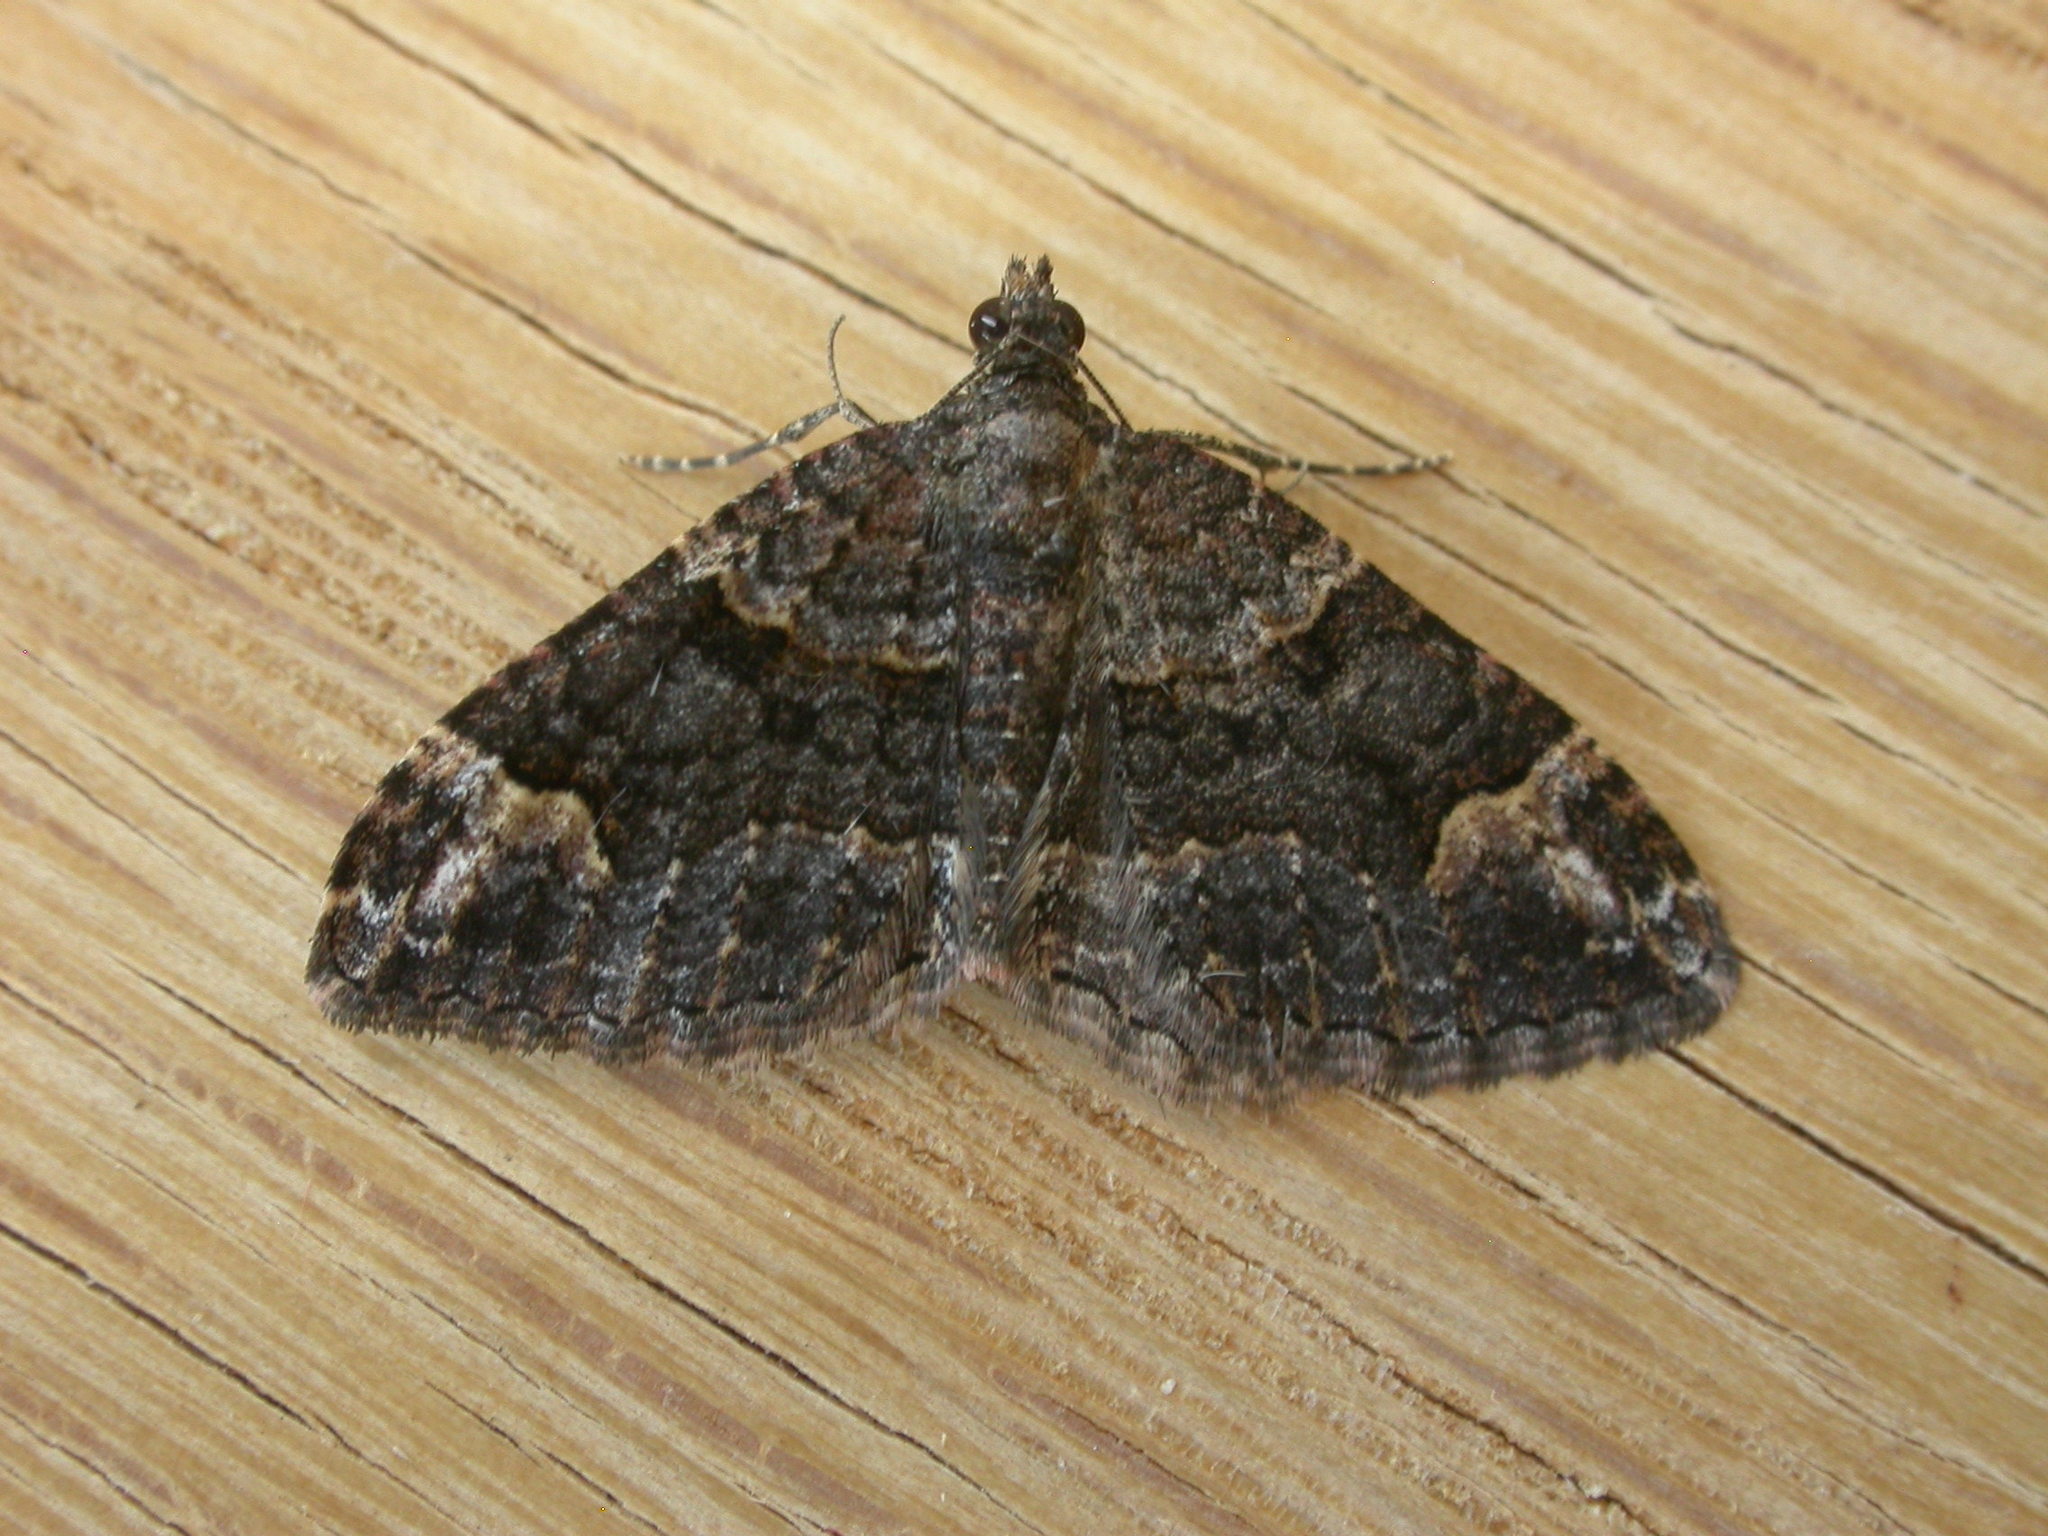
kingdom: Animalia
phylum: Arthropoda
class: Insecta
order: Lepidoptera
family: Geometridae
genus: Epyaxa
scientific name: Epyaxa sodaliata
